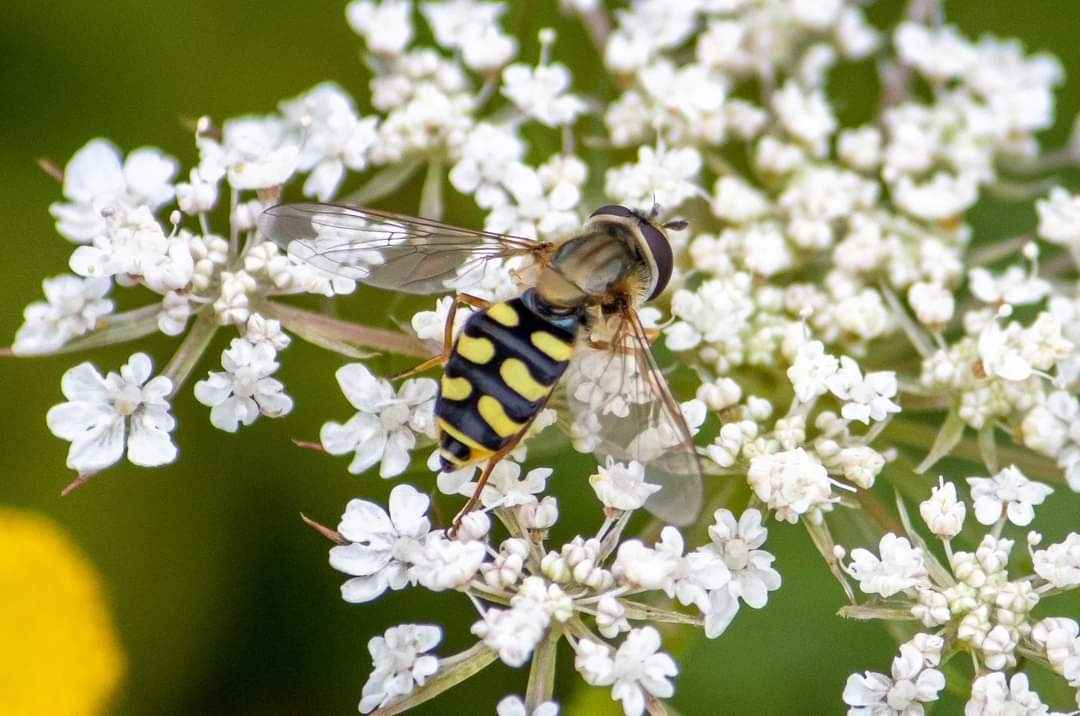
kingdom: Animalia
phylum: Arthropoda
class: Insecta
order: Diptera
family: Syrphidae
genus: Eupeodes
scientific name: Eupeodes corollae
